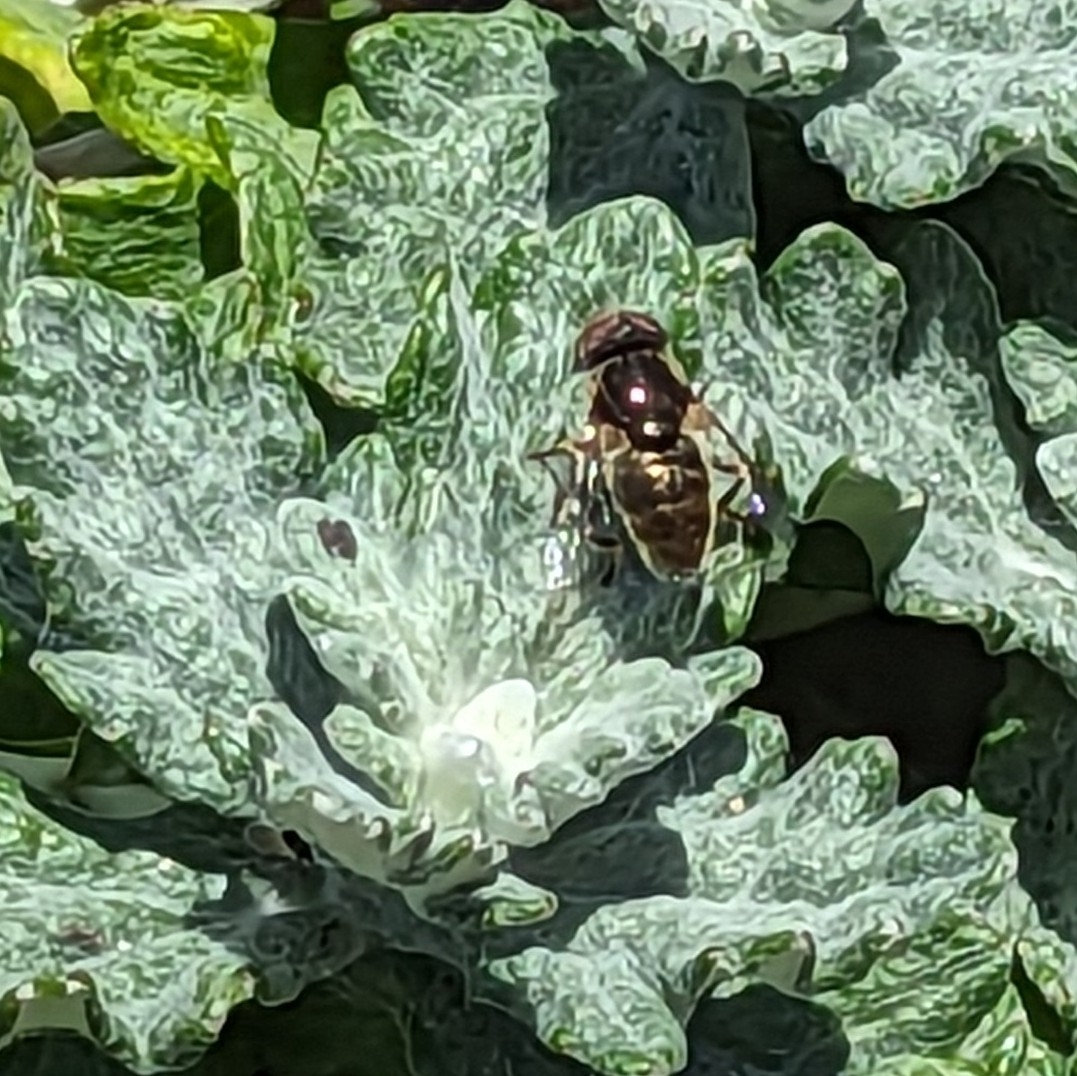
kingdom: Animalia
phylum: Arthropoda
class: Insecta
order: Diptera
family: Syrphidae
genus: Eristalinus
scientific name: Eristalinus aeneus
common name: Syrphid fly
